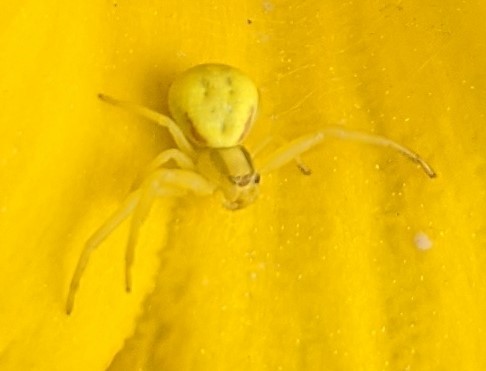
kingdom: Animalia
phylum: Arthropoda
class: Arachnida
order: Araneae
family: Thomisidae
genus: Misumena
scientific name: Misumena vatia
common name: Goldenrod crab spider
